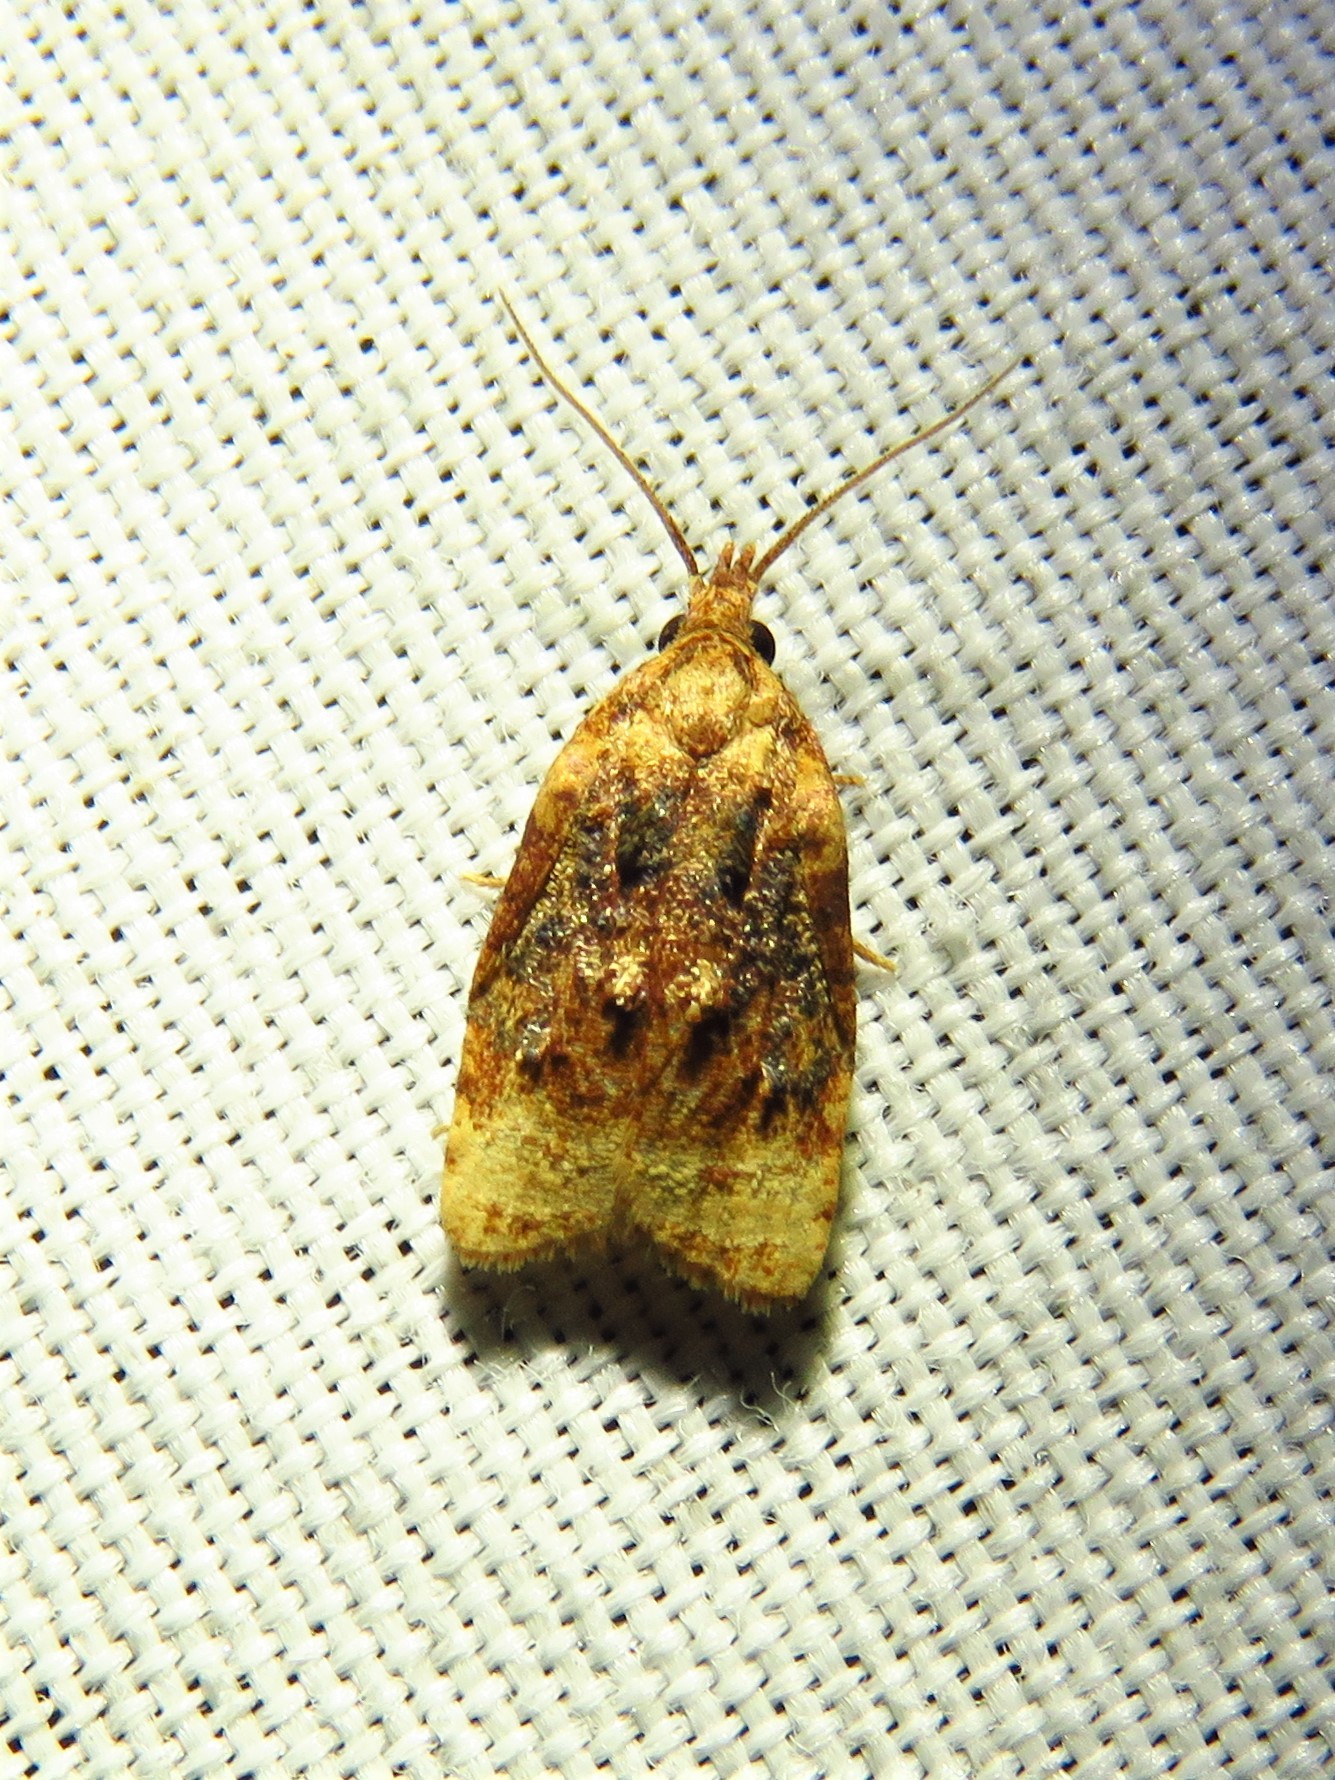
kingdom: Animalia
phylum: Arthropoda
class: Insecta
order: Lepidoptera
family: Tortricidae
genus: Platynota
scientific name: Platynota flavedana
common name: Black-shaded platynota moth
